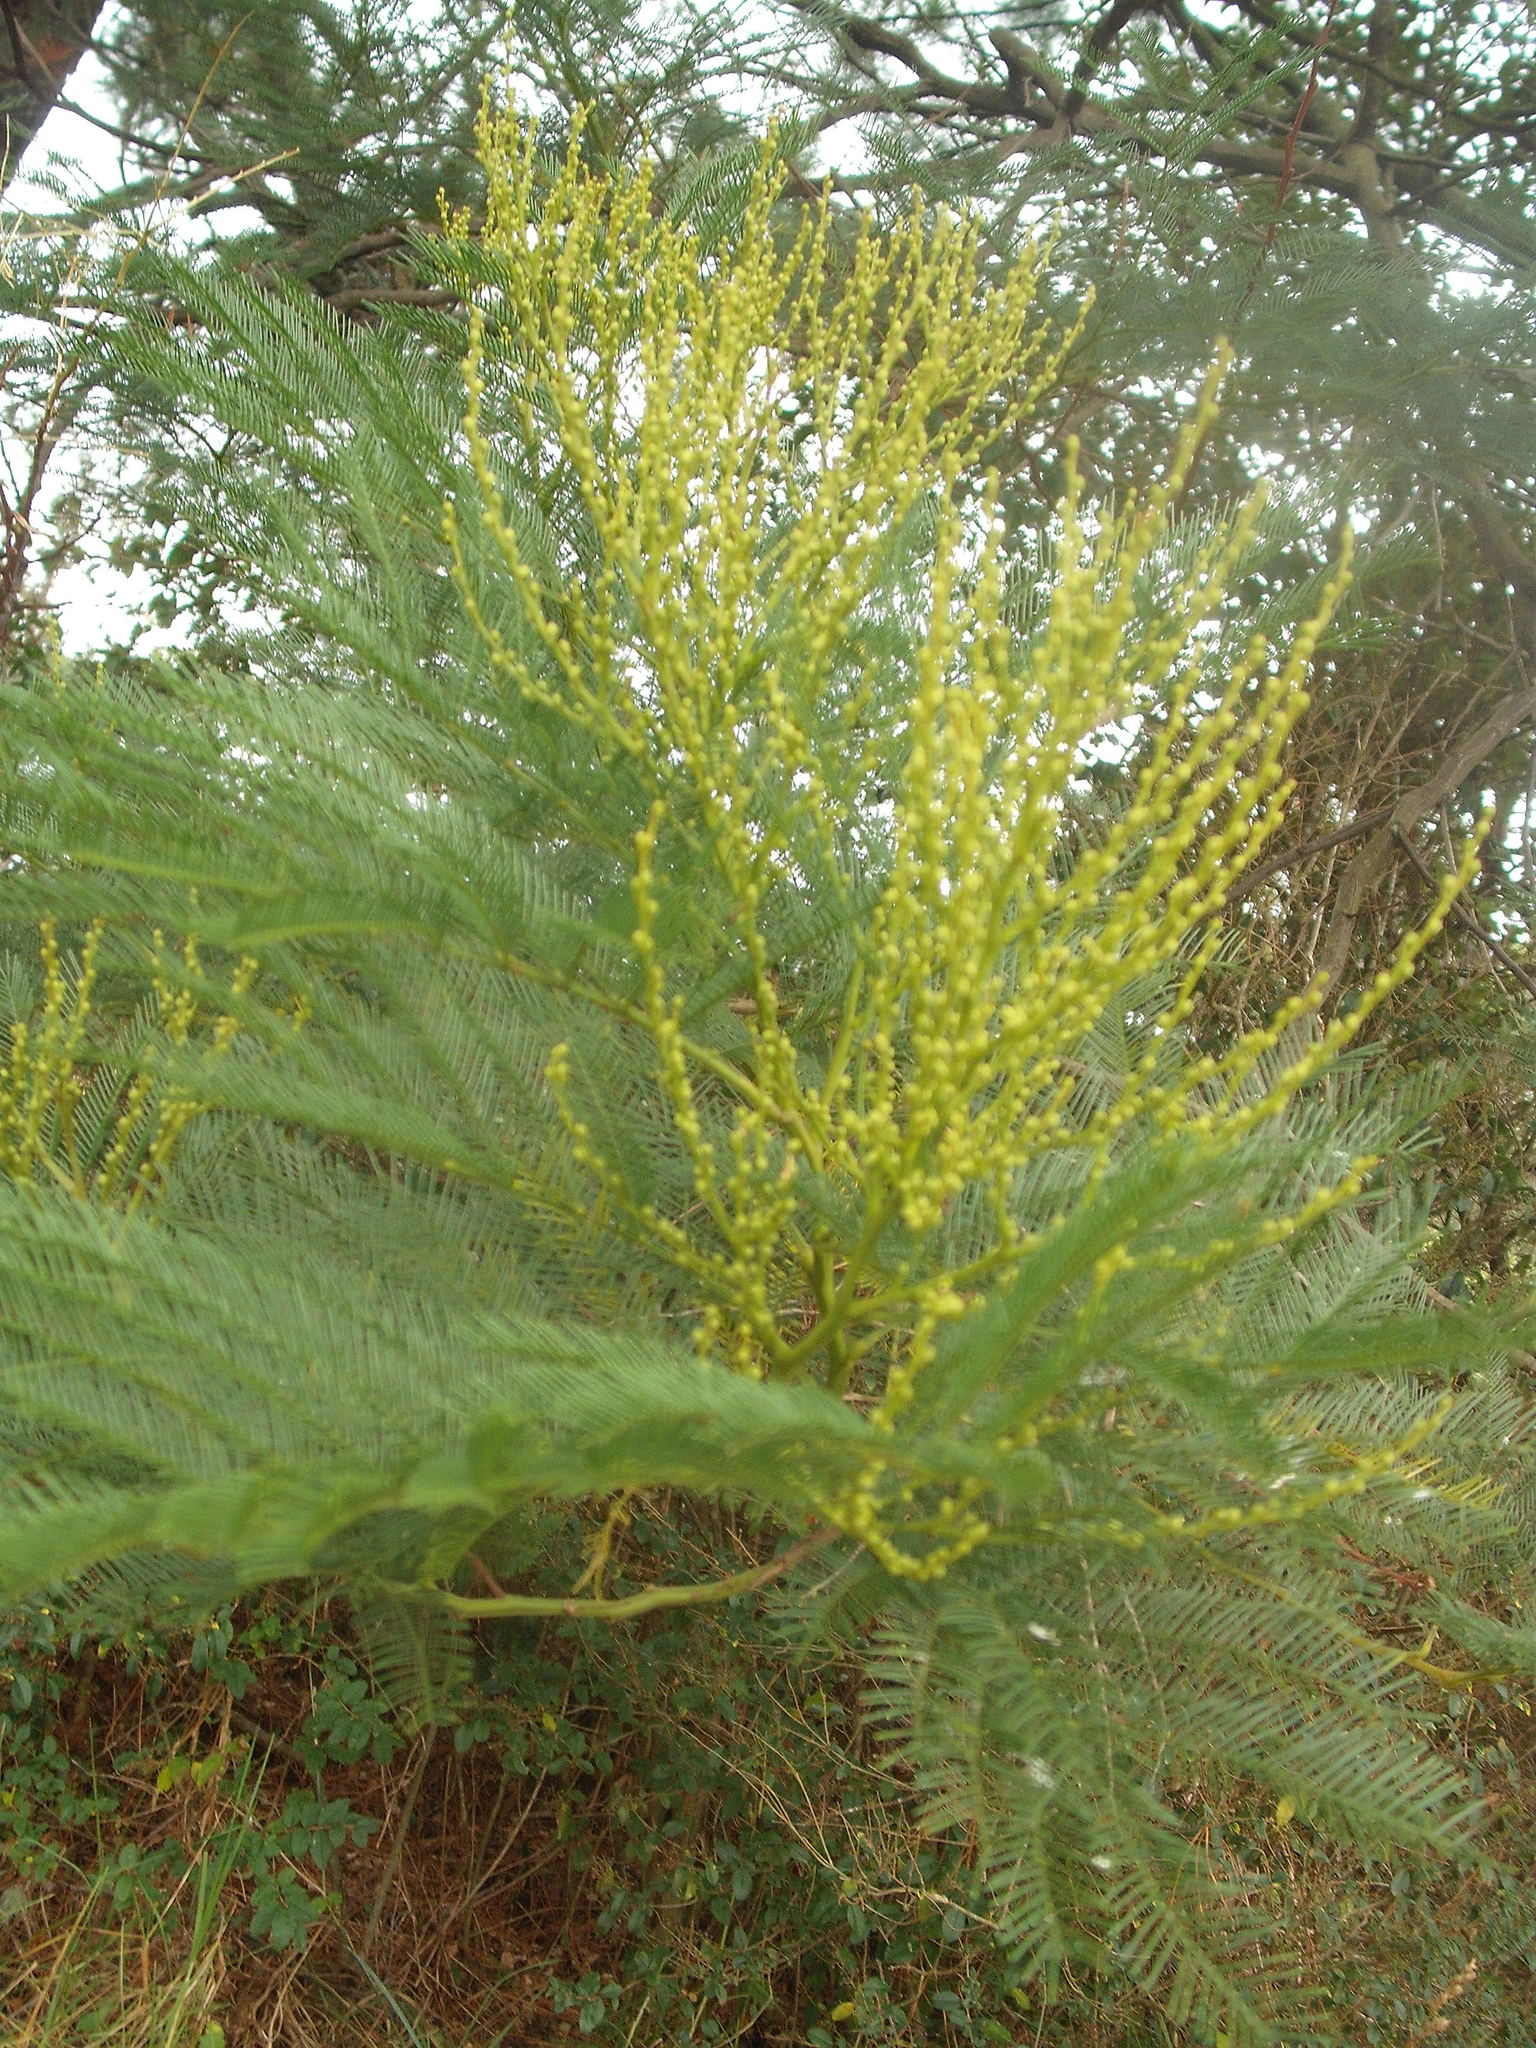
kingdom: Plantae
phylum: Tracheophyta
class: Magnoliopsida
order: Fabales
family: Fabaceae
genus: Acacia
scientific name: Acacia decurrens
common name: Green wattle
